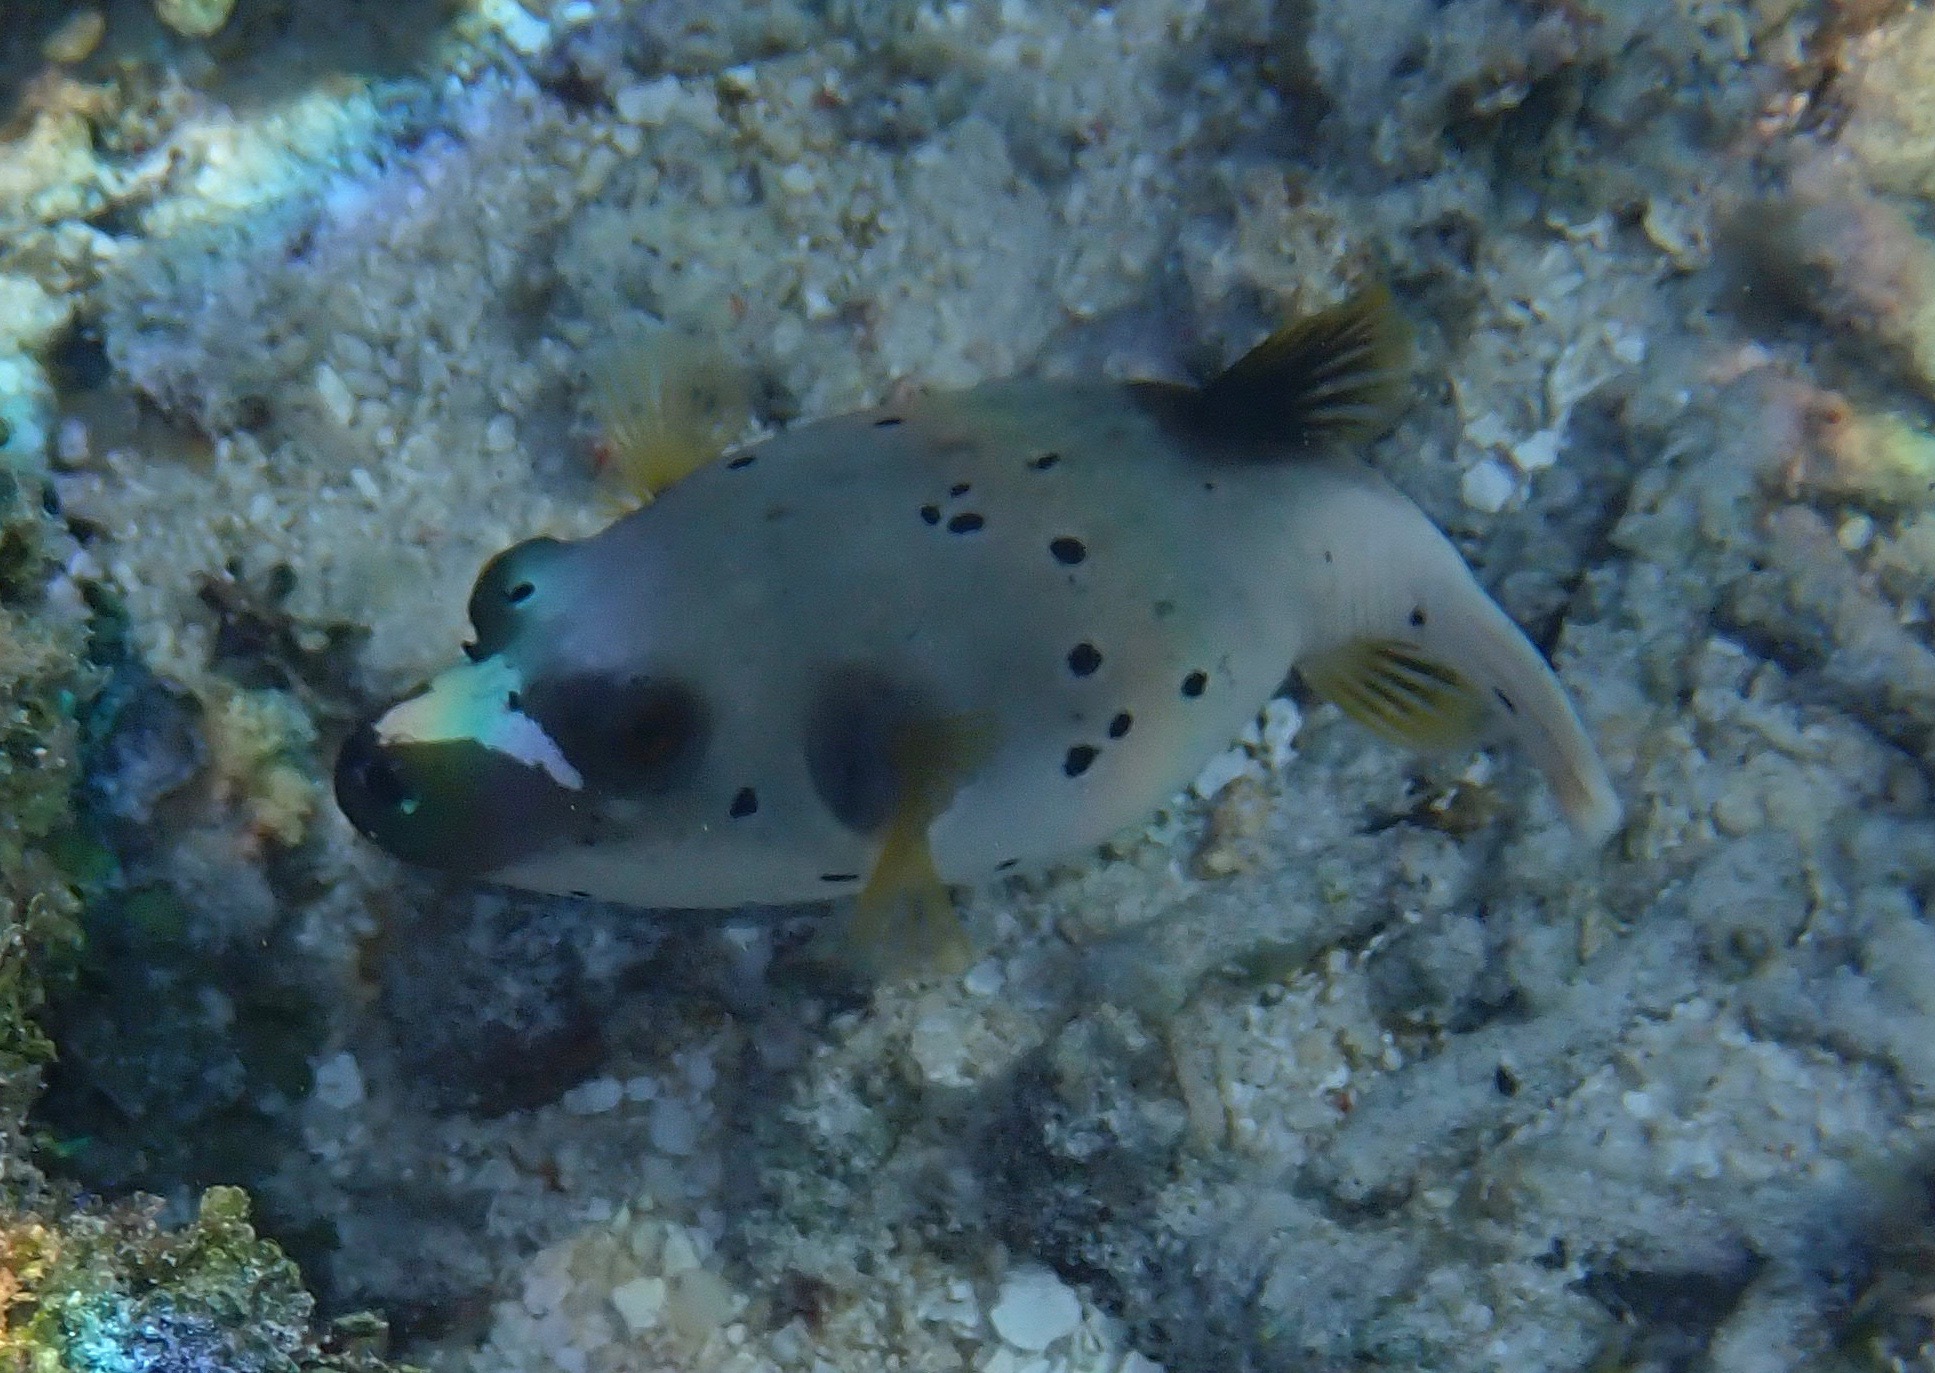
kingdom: Animalia
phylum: Chordata
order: Tetraodontiformes
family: Tetraodontidae
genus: Arothron
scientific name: Arothron nigropunctatus
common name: Black spotted blow fish
